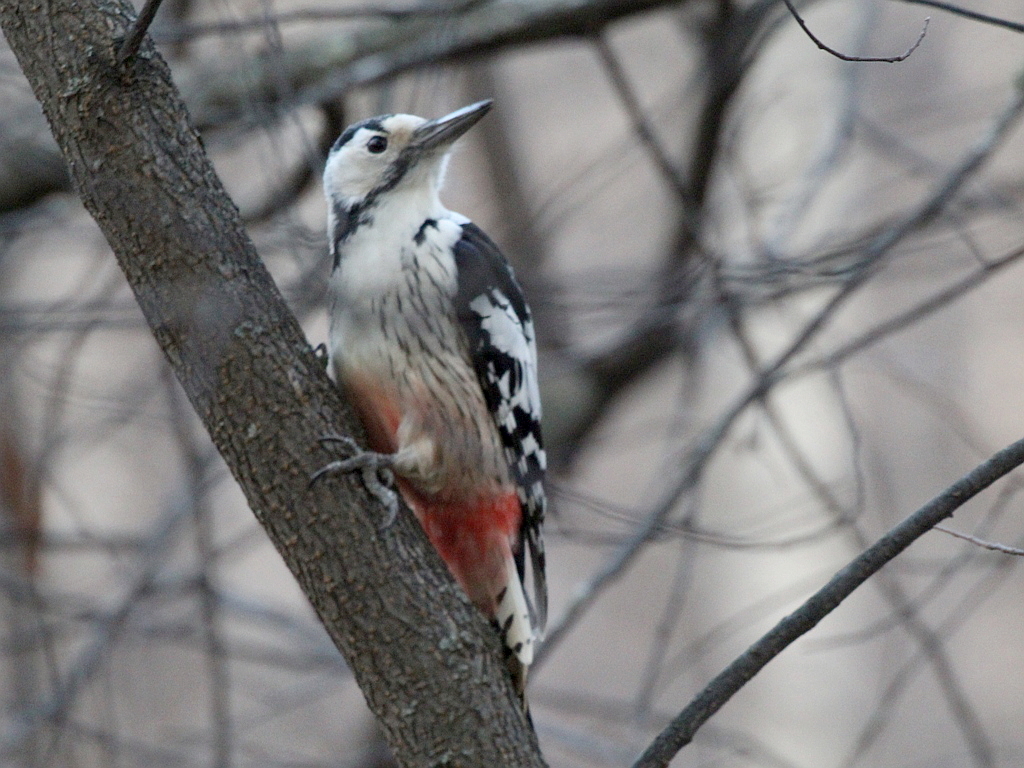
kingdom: Animalia
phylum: Chordata
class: Aves
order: Piciformes
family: Picidae
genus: Dendrocopos
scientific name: Dendrocopos leucotos
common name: White-backed woodpecker
